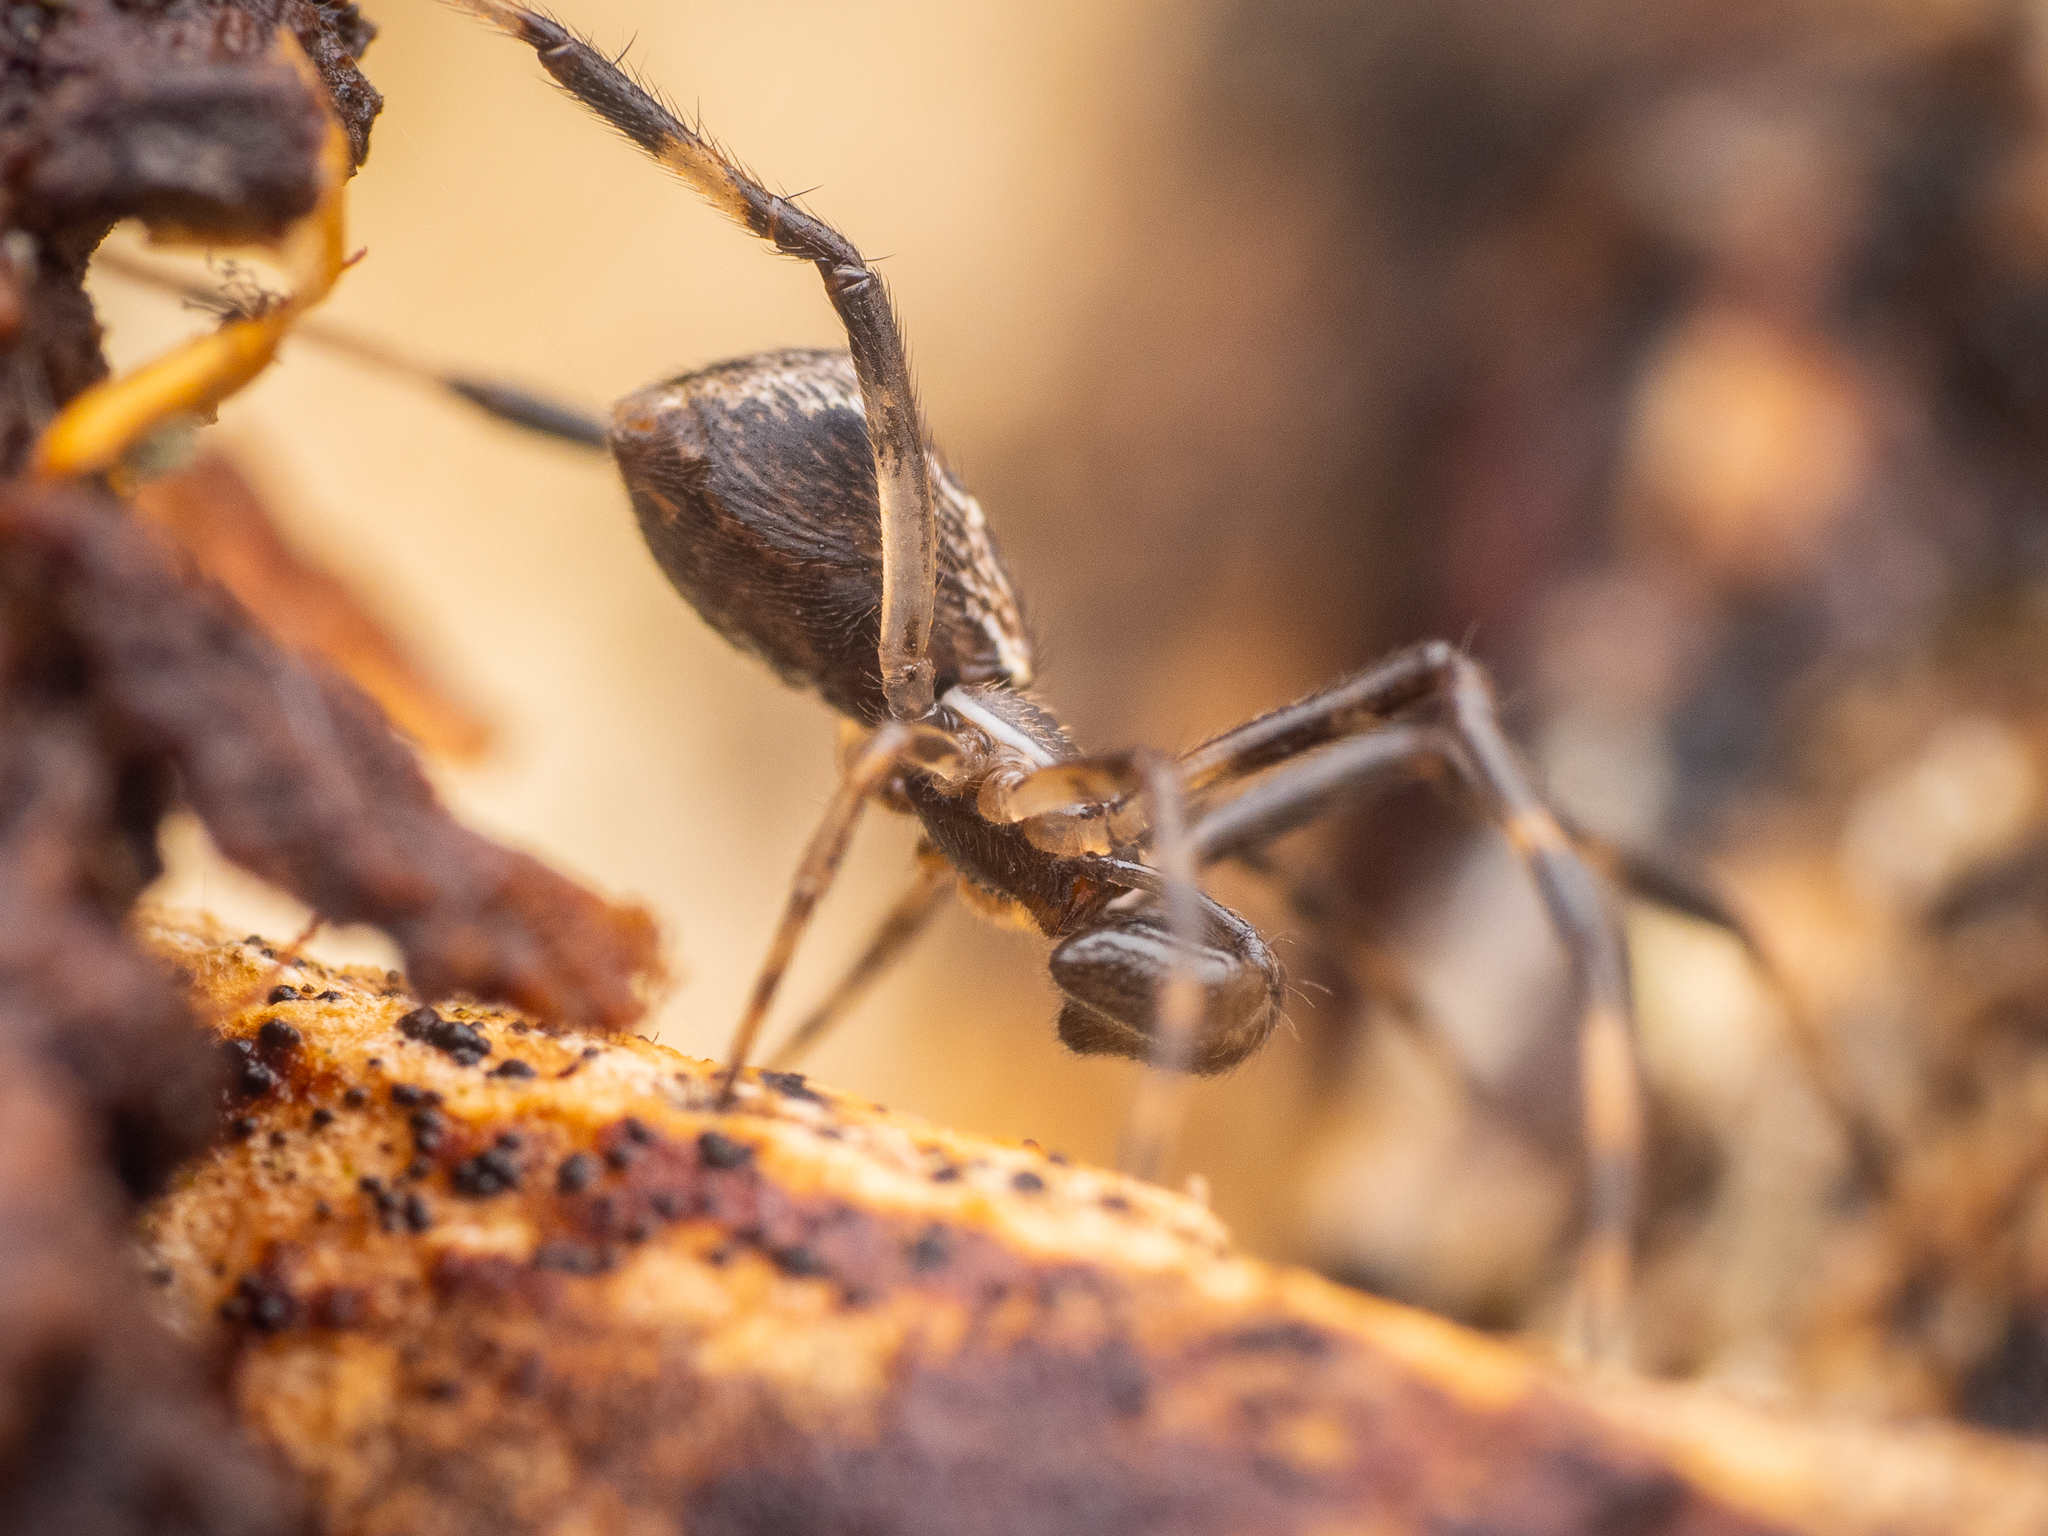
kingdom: Animalia
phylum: Arthropoda
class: Arachnida
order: Araneae
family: Theridiidae
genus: Episinus
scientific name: Episinus angulatus
